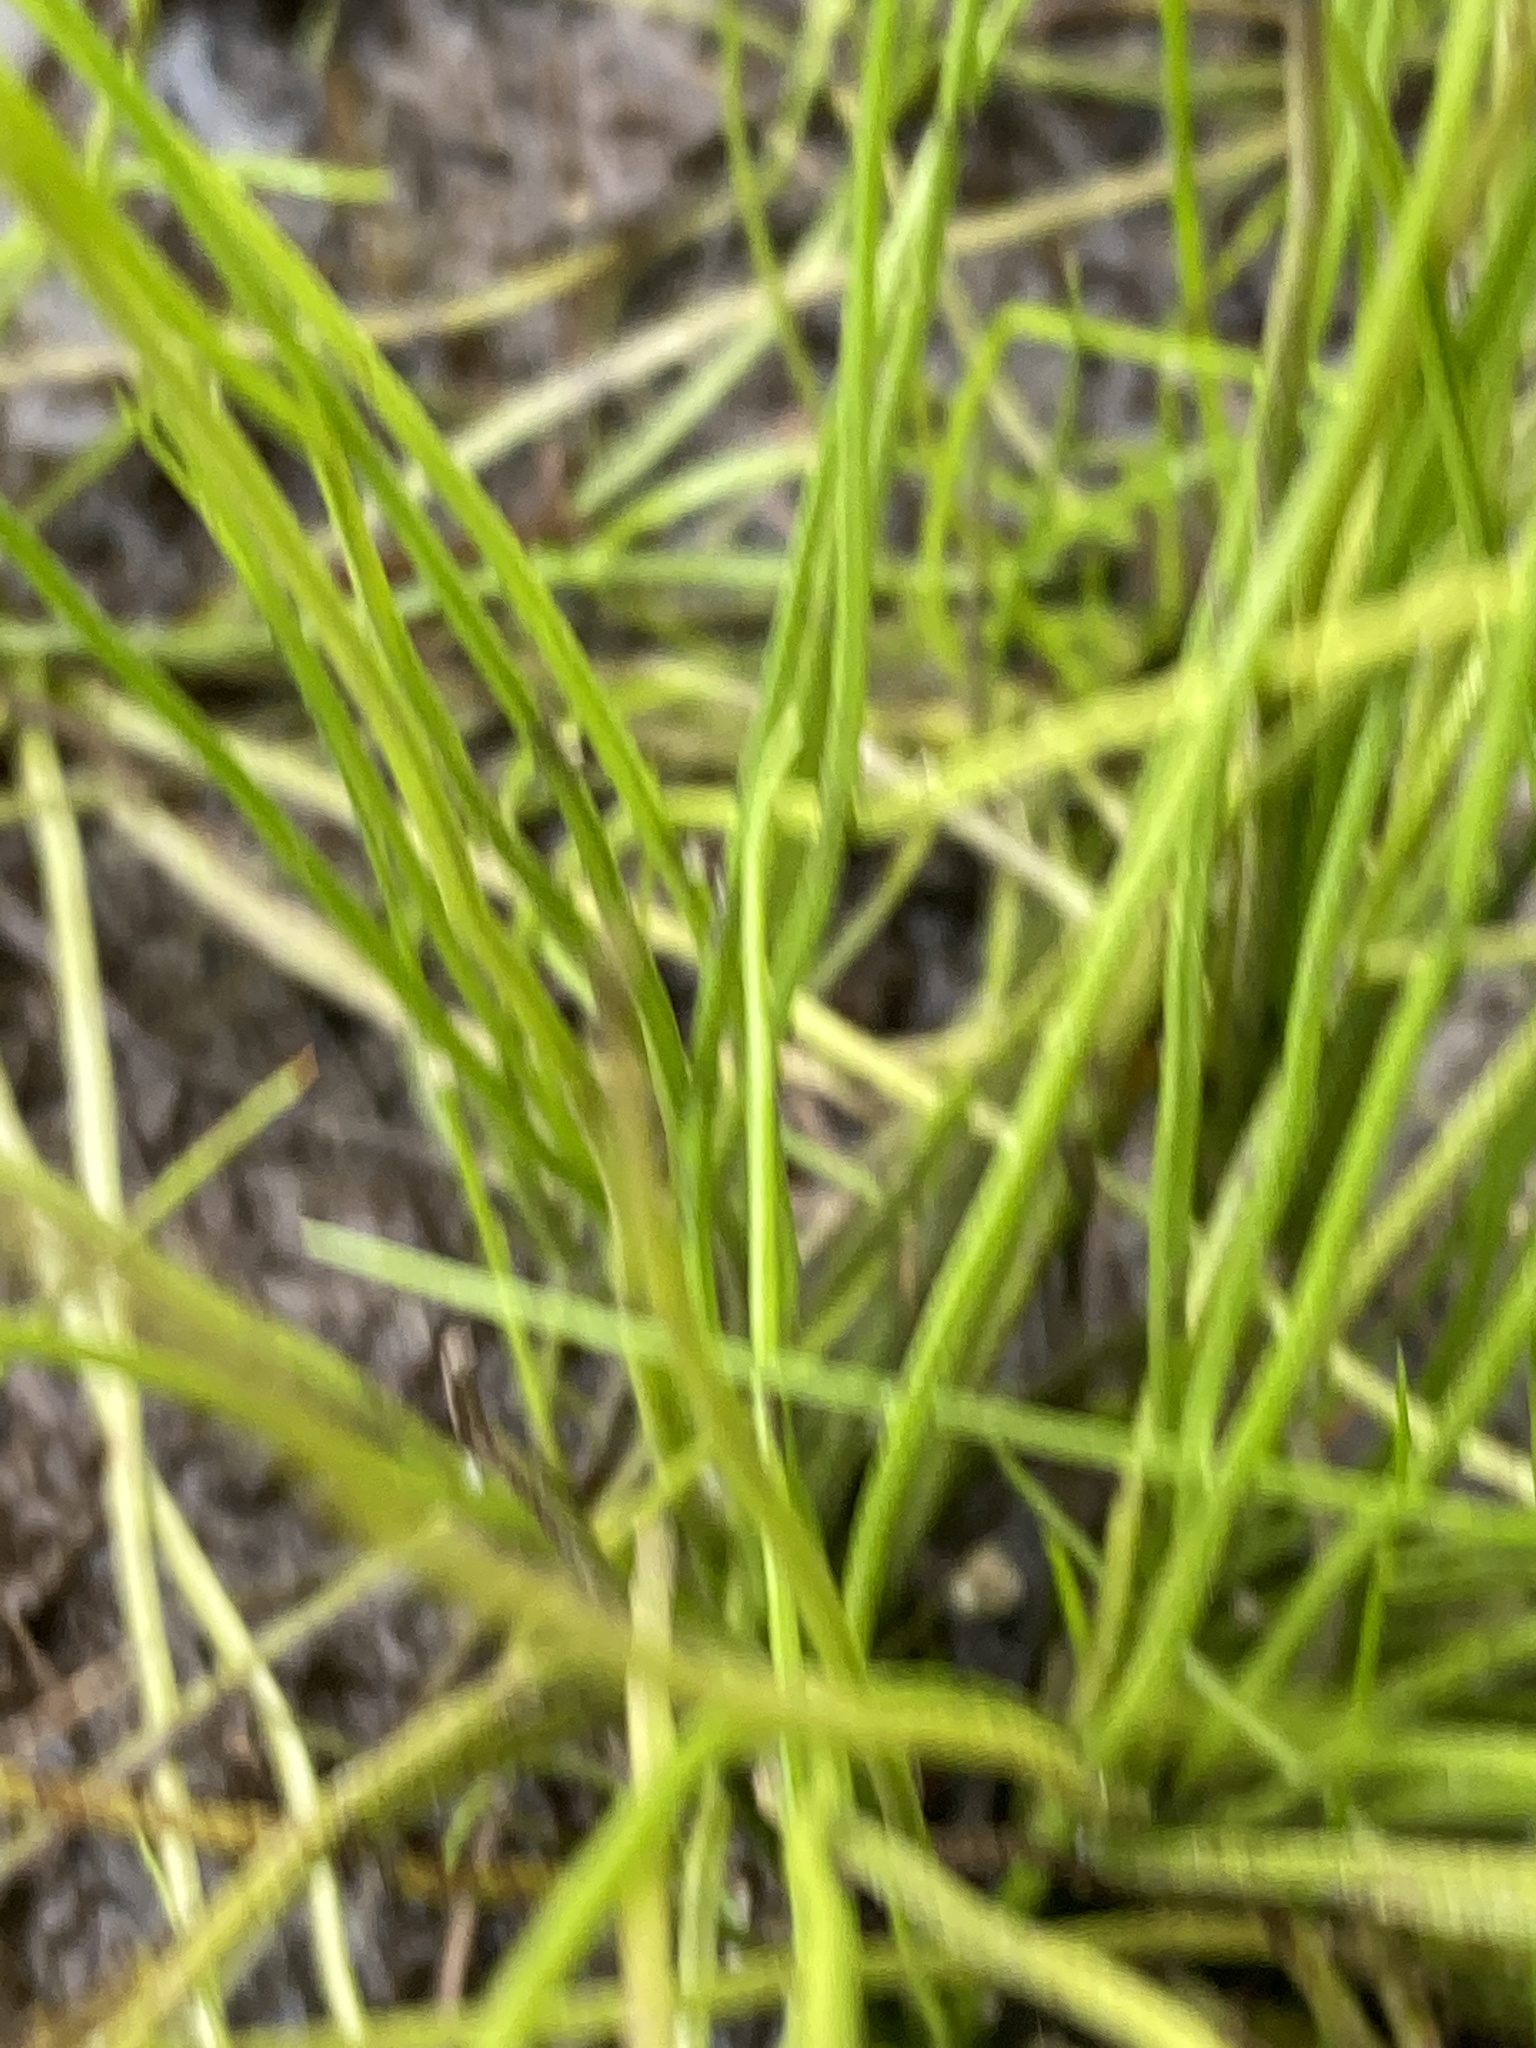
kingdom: Plantae
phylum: Tracheophyta
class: Lycopodiopsida
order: Isoetales
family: Isoetaceae
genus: Isoetes
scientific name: Isoetes valida
